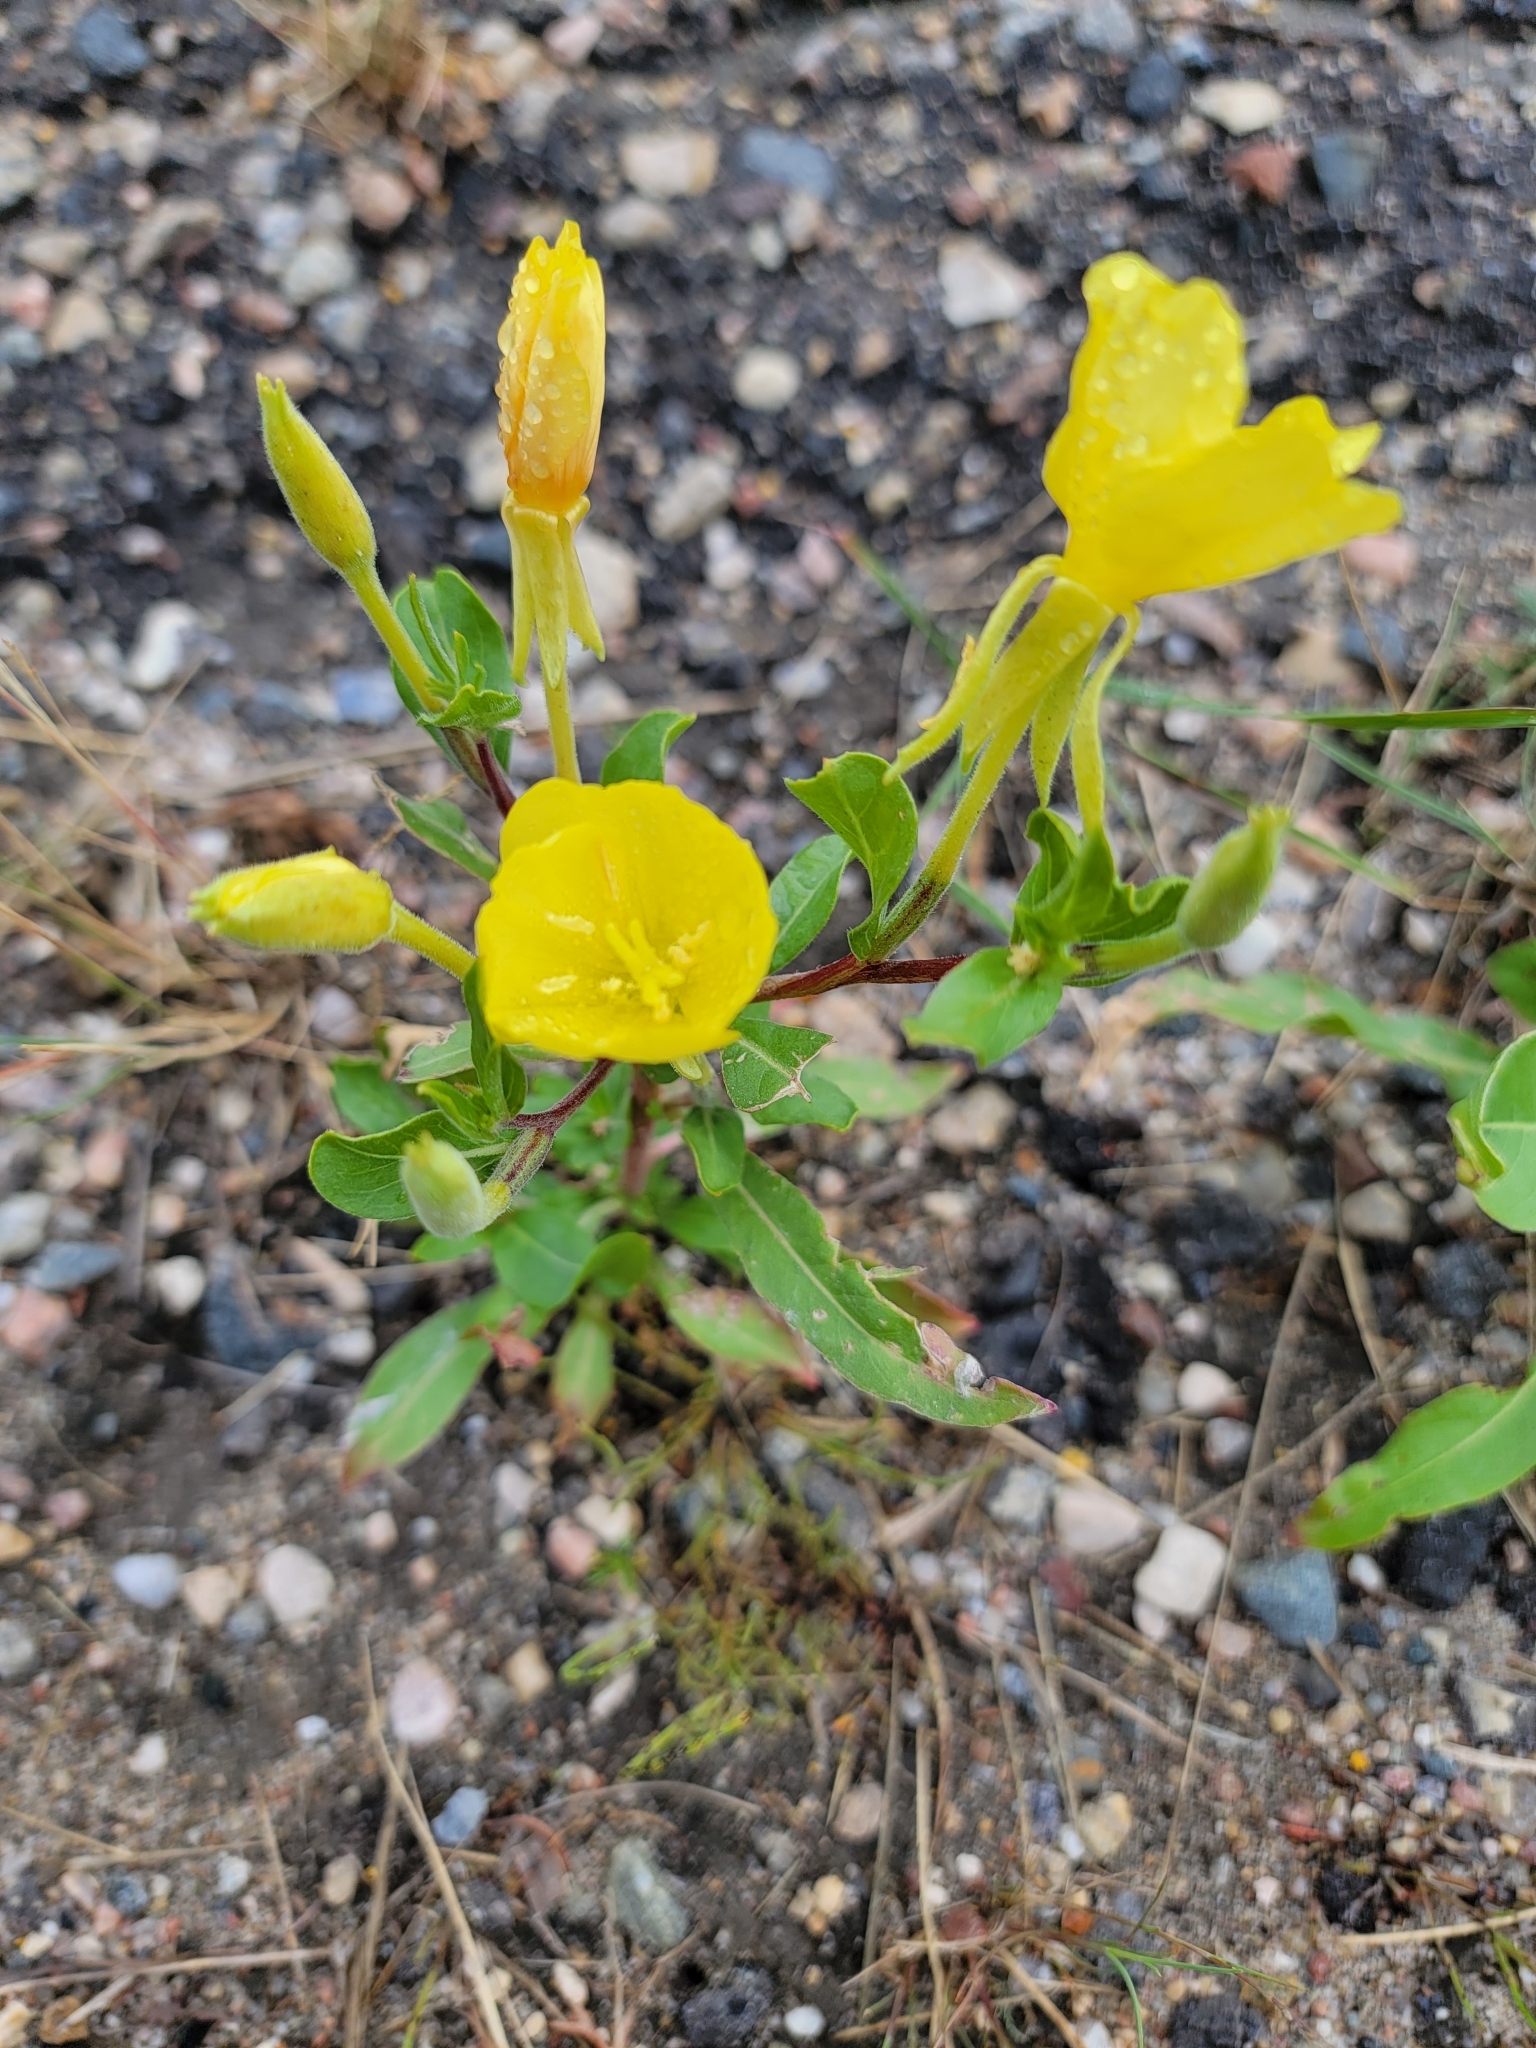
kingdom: Plantae
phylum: Tracheophyta
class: Magnoliopsida
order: Myrtales
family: Onagraceae
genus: Oenothera
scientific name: Oenothera biennis
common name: Common evening-primrose
